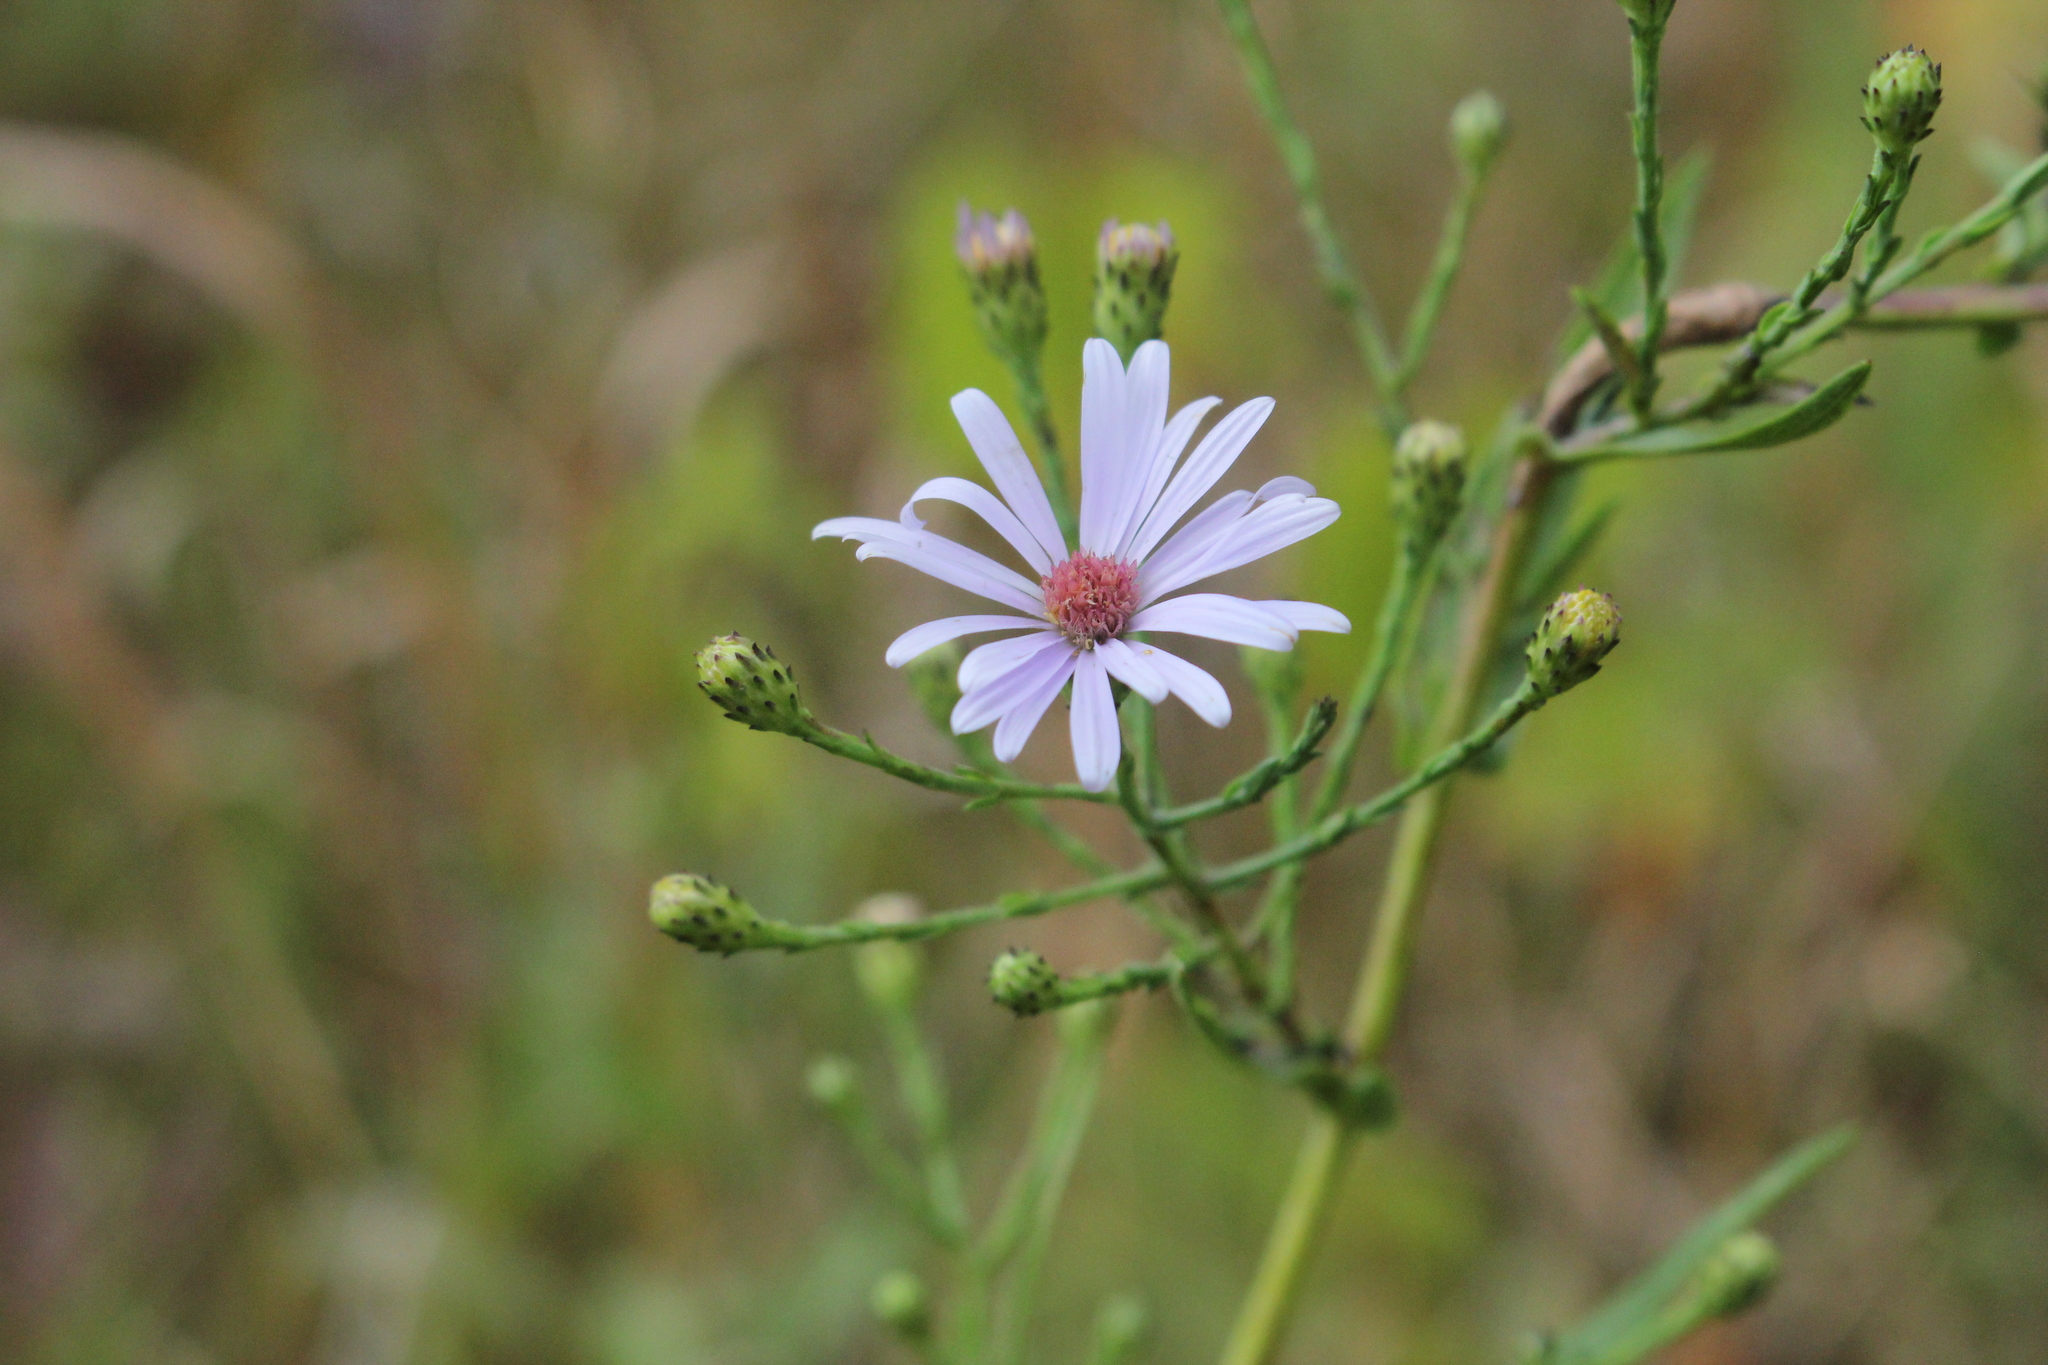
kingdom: Plantae
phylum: Tracheophyta
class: Magnoliopsida
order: Asterales
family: Asteraceae
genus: Symphyotrichum
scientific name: Symphyotrichum laeve
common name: Glaucous aster
